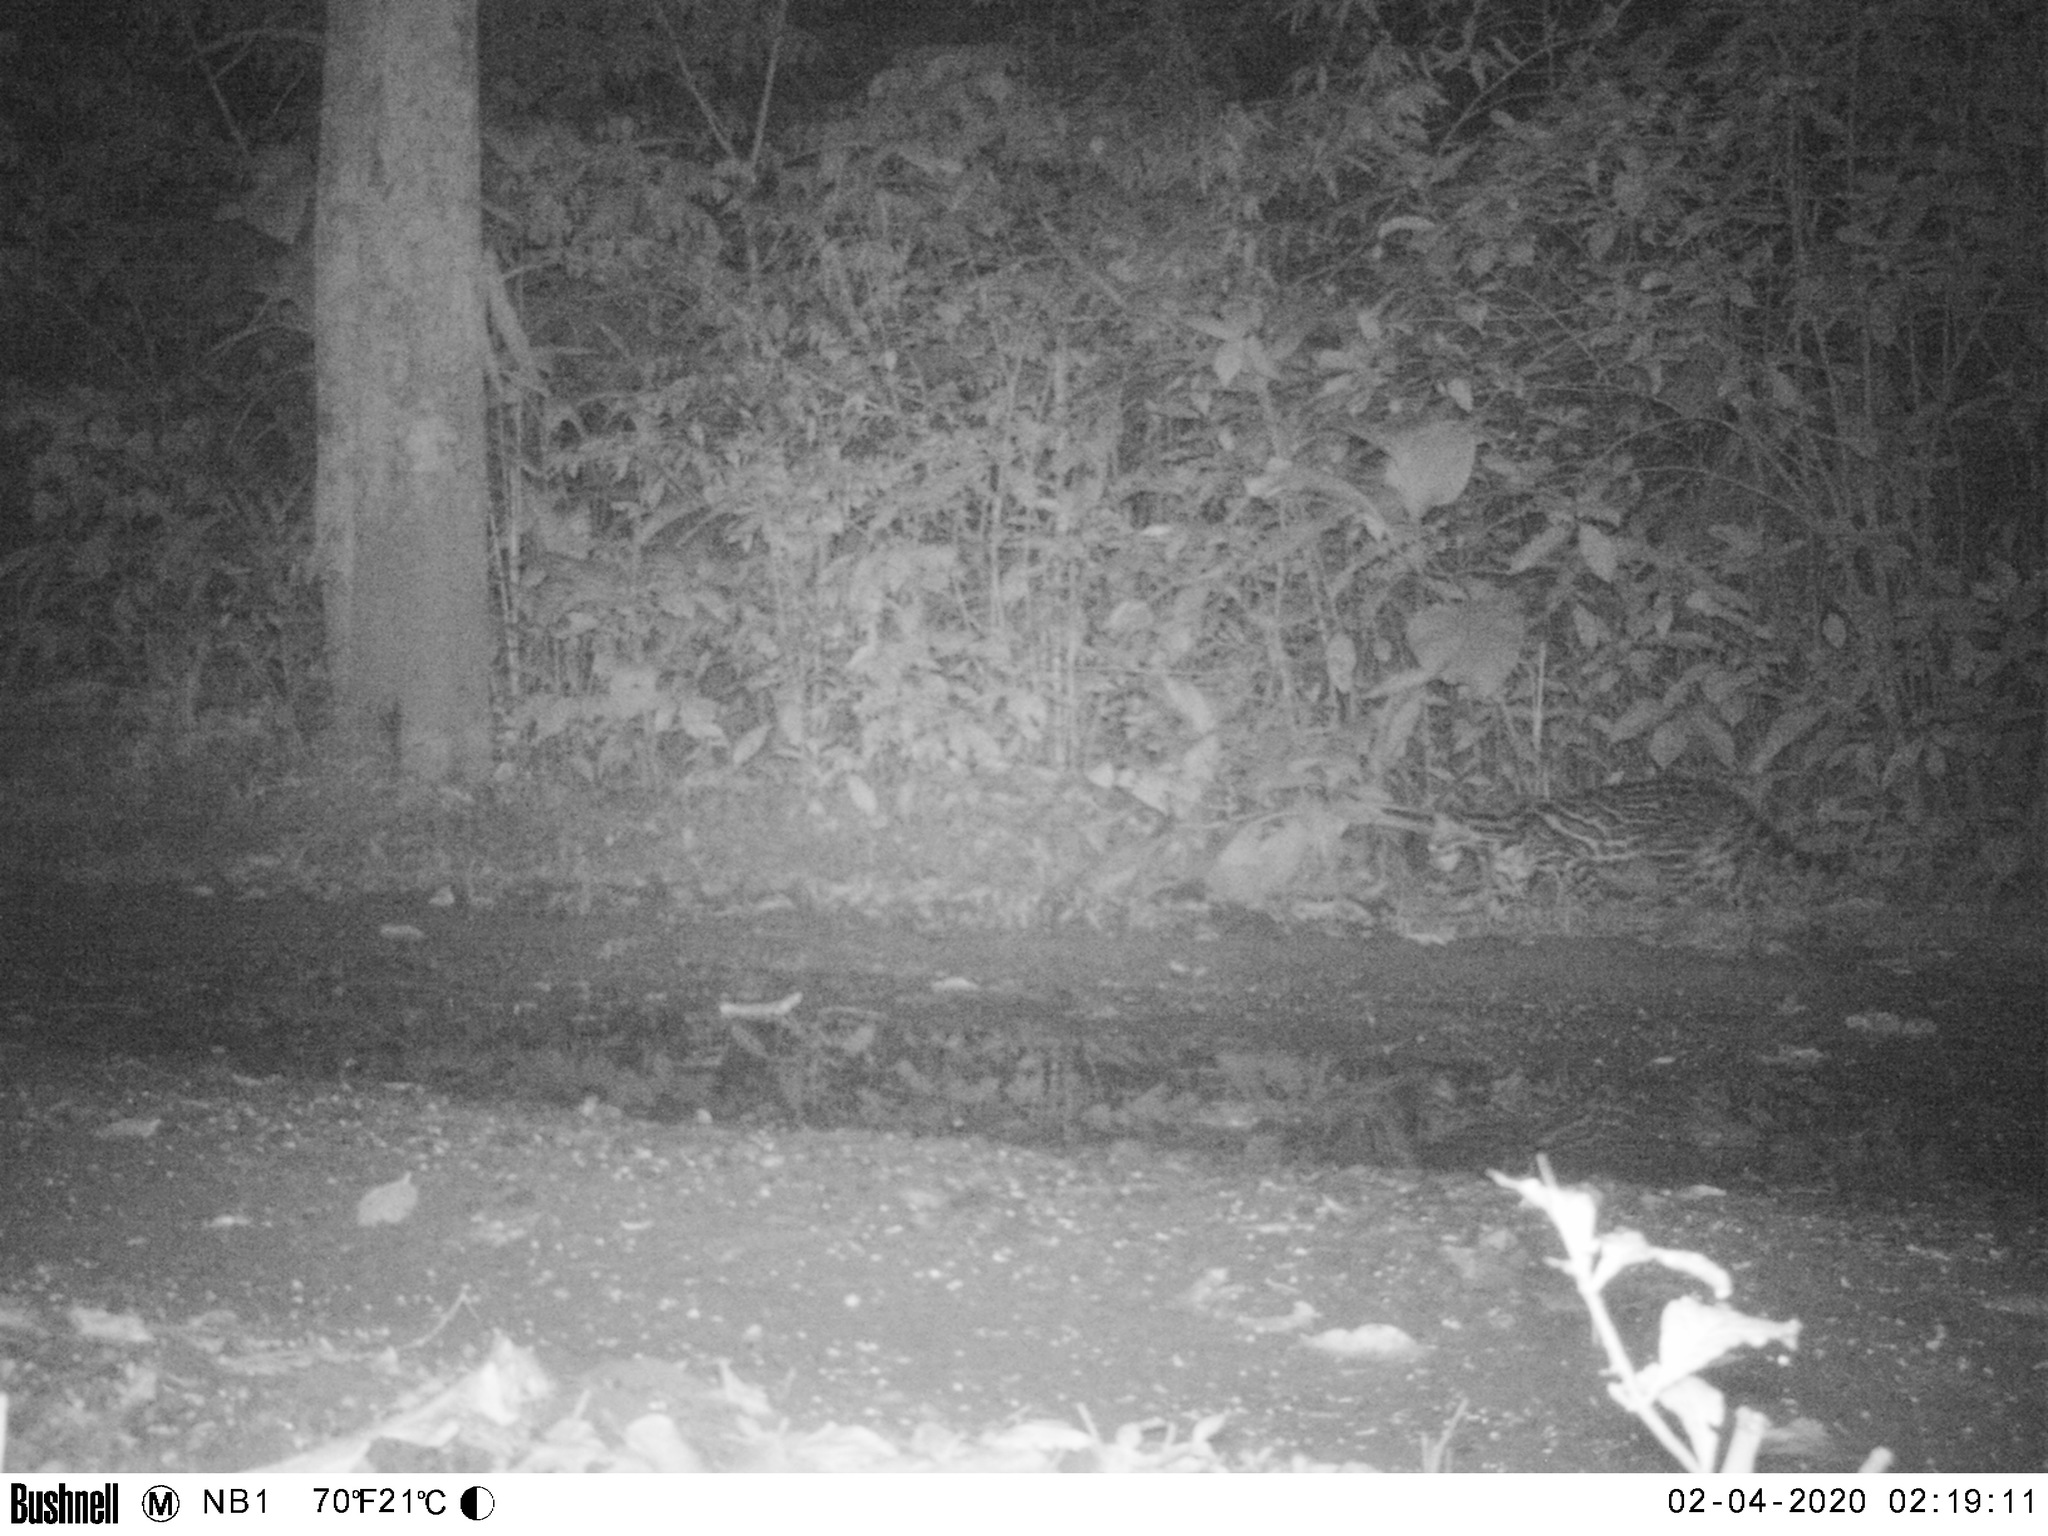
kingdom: Animalia
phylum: Chordata
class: Mammalia
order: Carnivora
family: Felidae
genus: Leopardus
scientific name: Leopardus pardalis
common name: Ocelot
